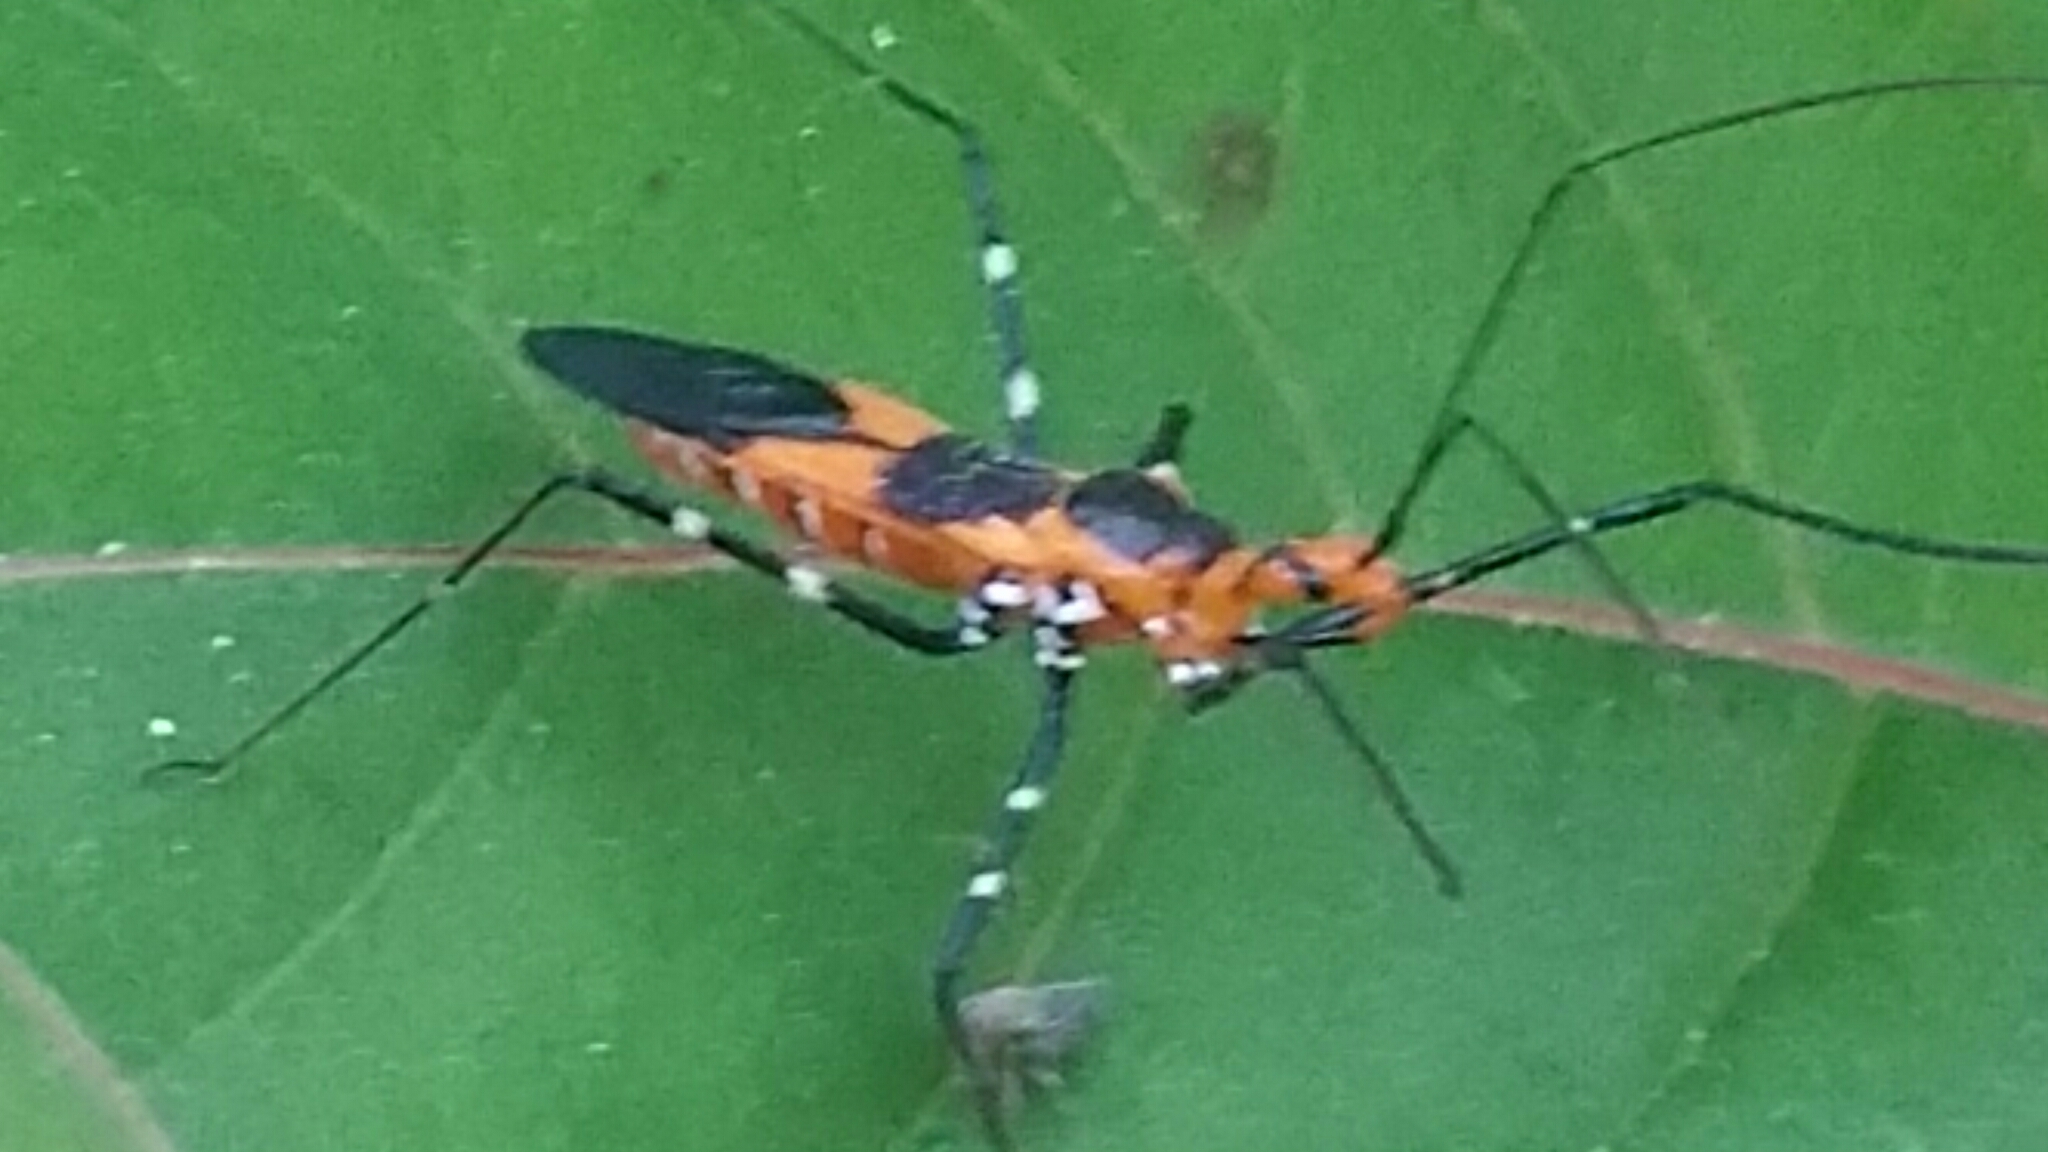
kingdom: Animalia
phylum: Arthropoda
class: Insecta
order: Hemiptera
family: Reduviidae
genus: Zelus
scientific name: Zelus longipes
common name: Milkweed assassin bug
